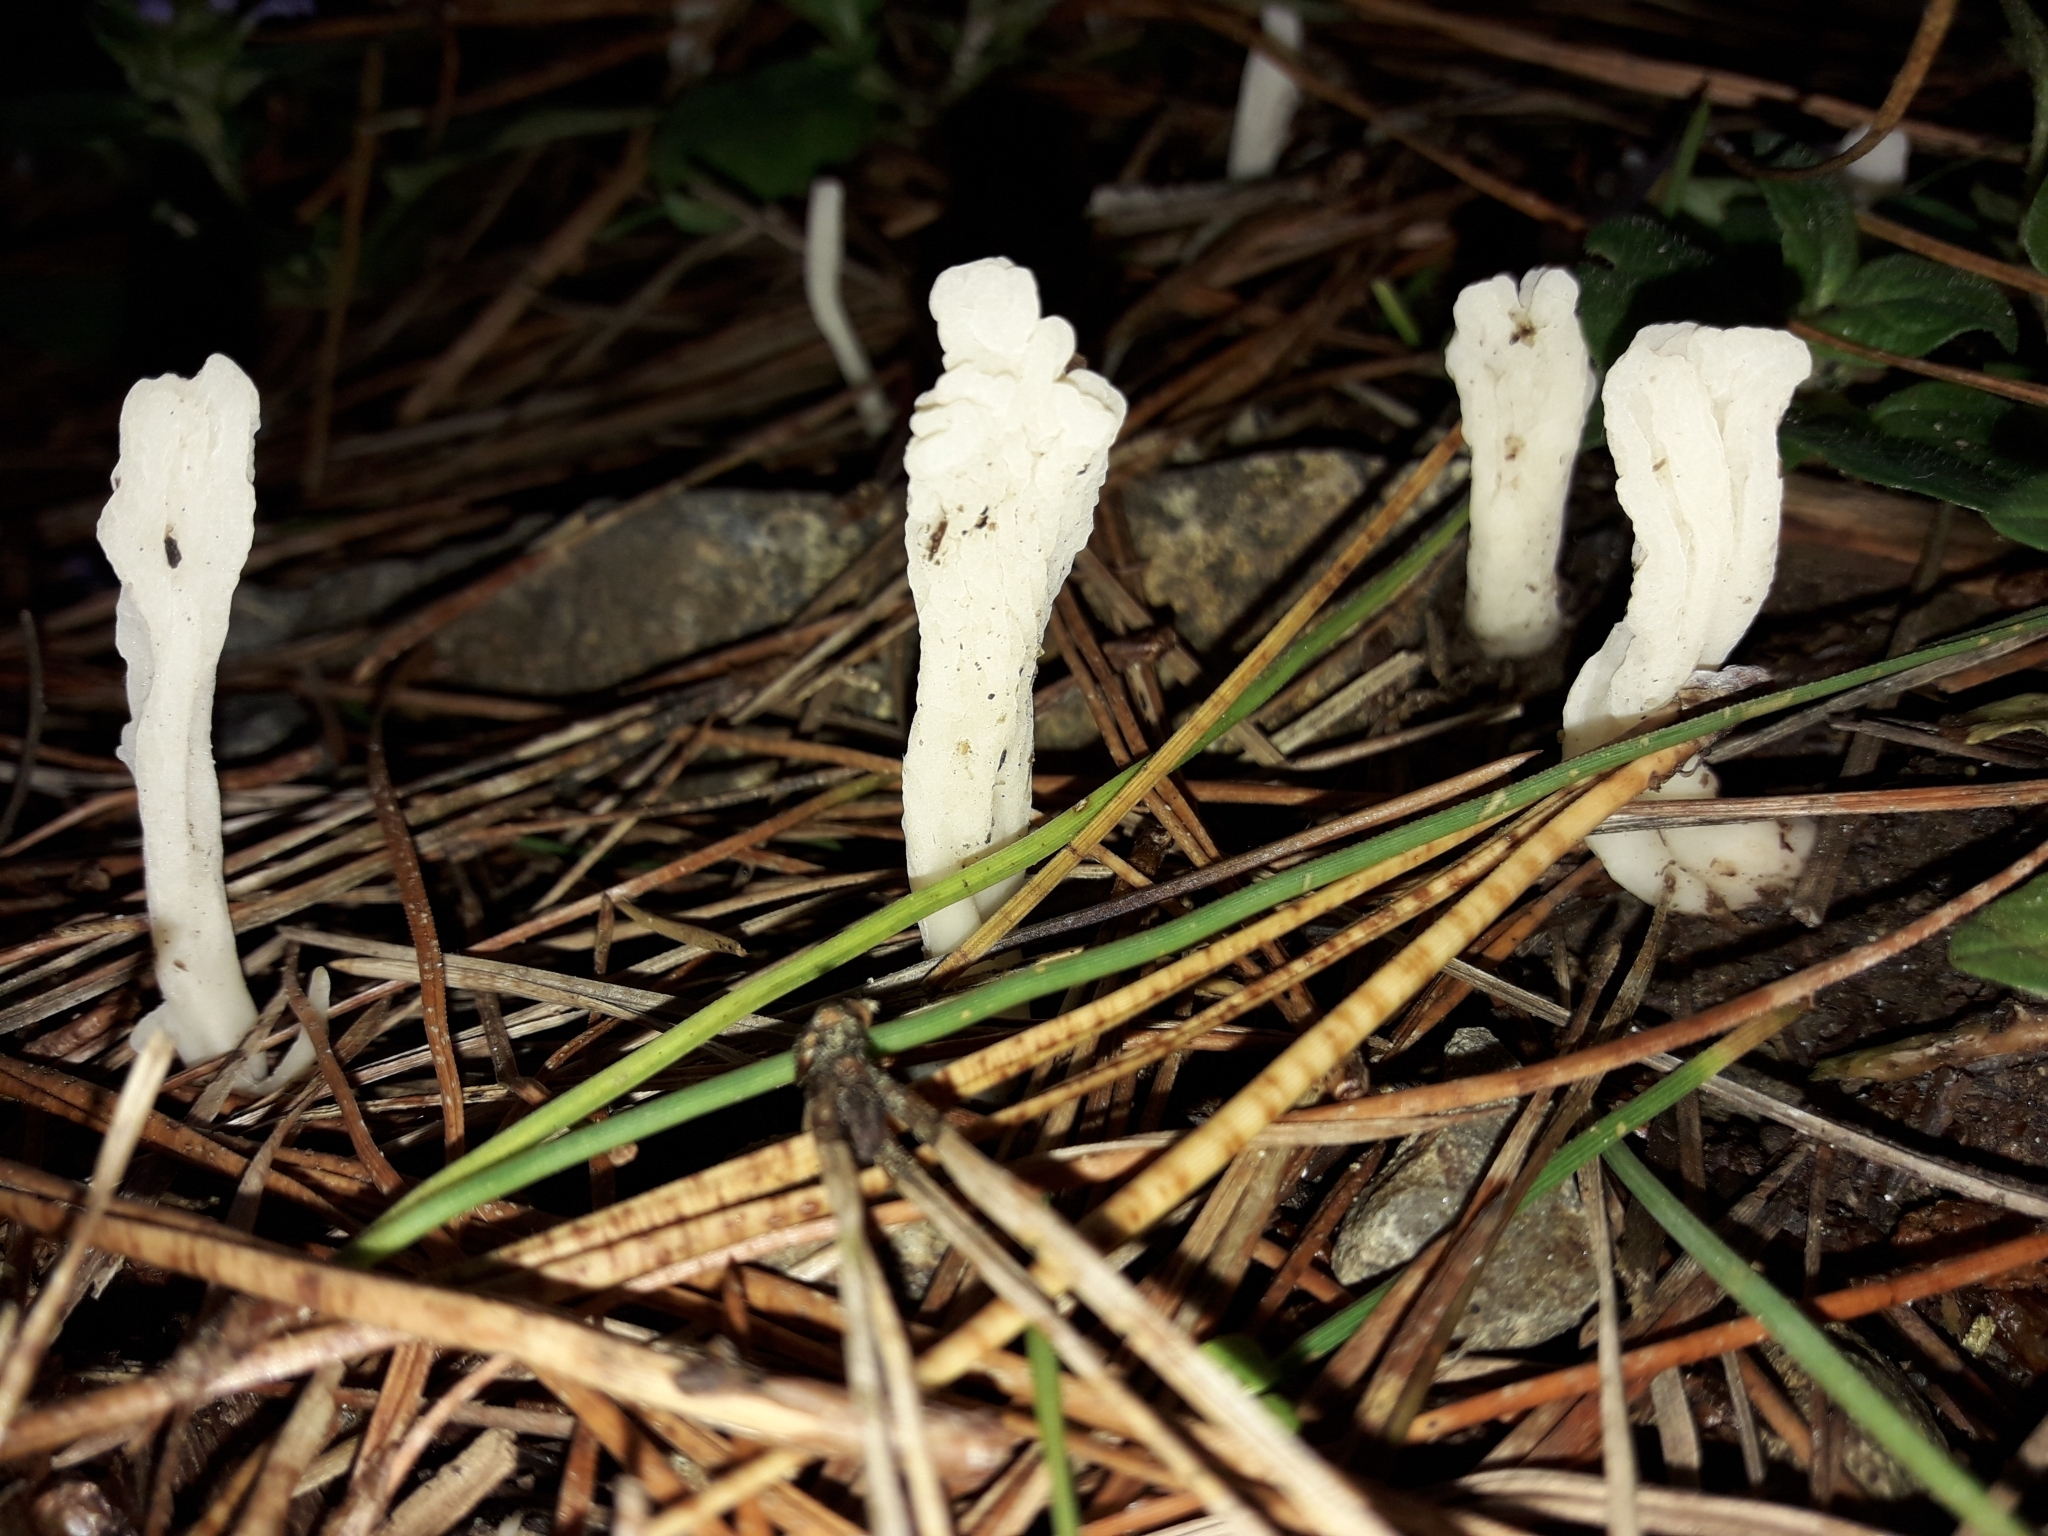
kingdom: Fungi
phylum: Basidiomycota
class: Agaricomycetes
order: Cantharellales
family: Hydnaceae
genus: Clavulina
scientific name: Clavulina rugosa
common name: Wrinkled club
